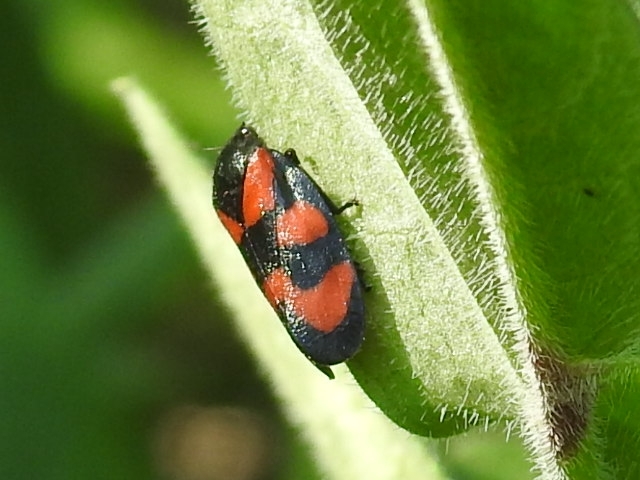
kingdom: Animalia
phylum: Arthropoda
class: Insecta
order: Hemiptera
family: Cercopidae
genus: Cercopis
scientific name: Cercopis vulnerata
